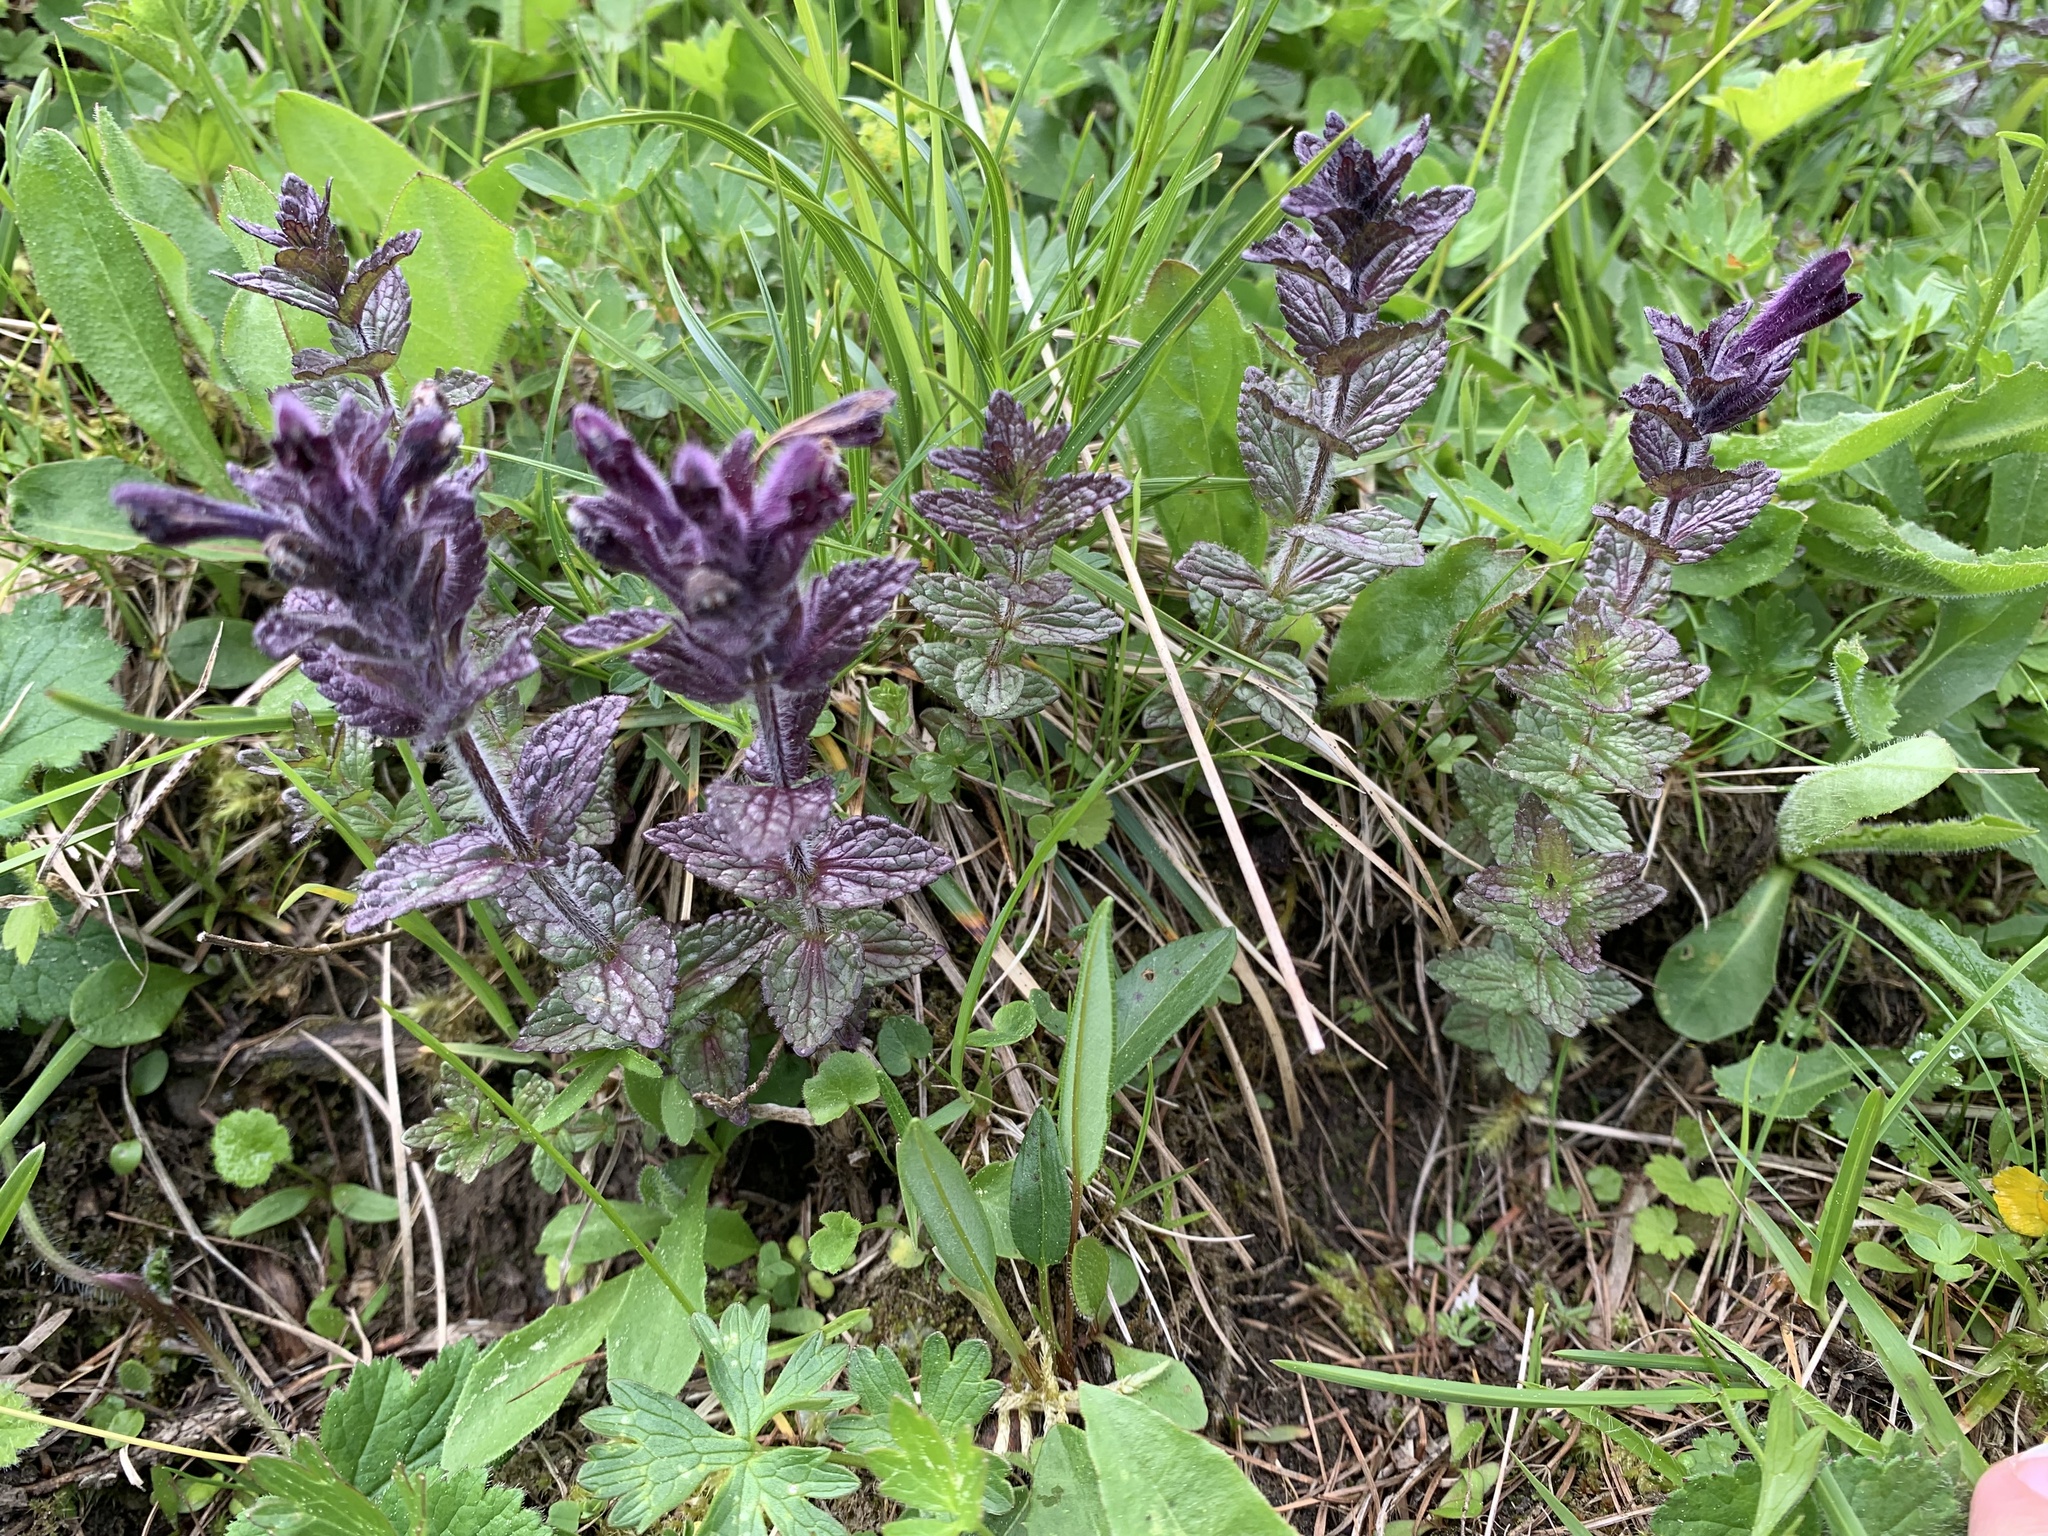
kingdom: Plantae
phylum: Tracheophyta
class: Magnoliopsida
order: Lamiales
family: Orobanchaceae
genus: Bartsia
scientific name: Bartsia alpina
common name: Alpine bartsia
